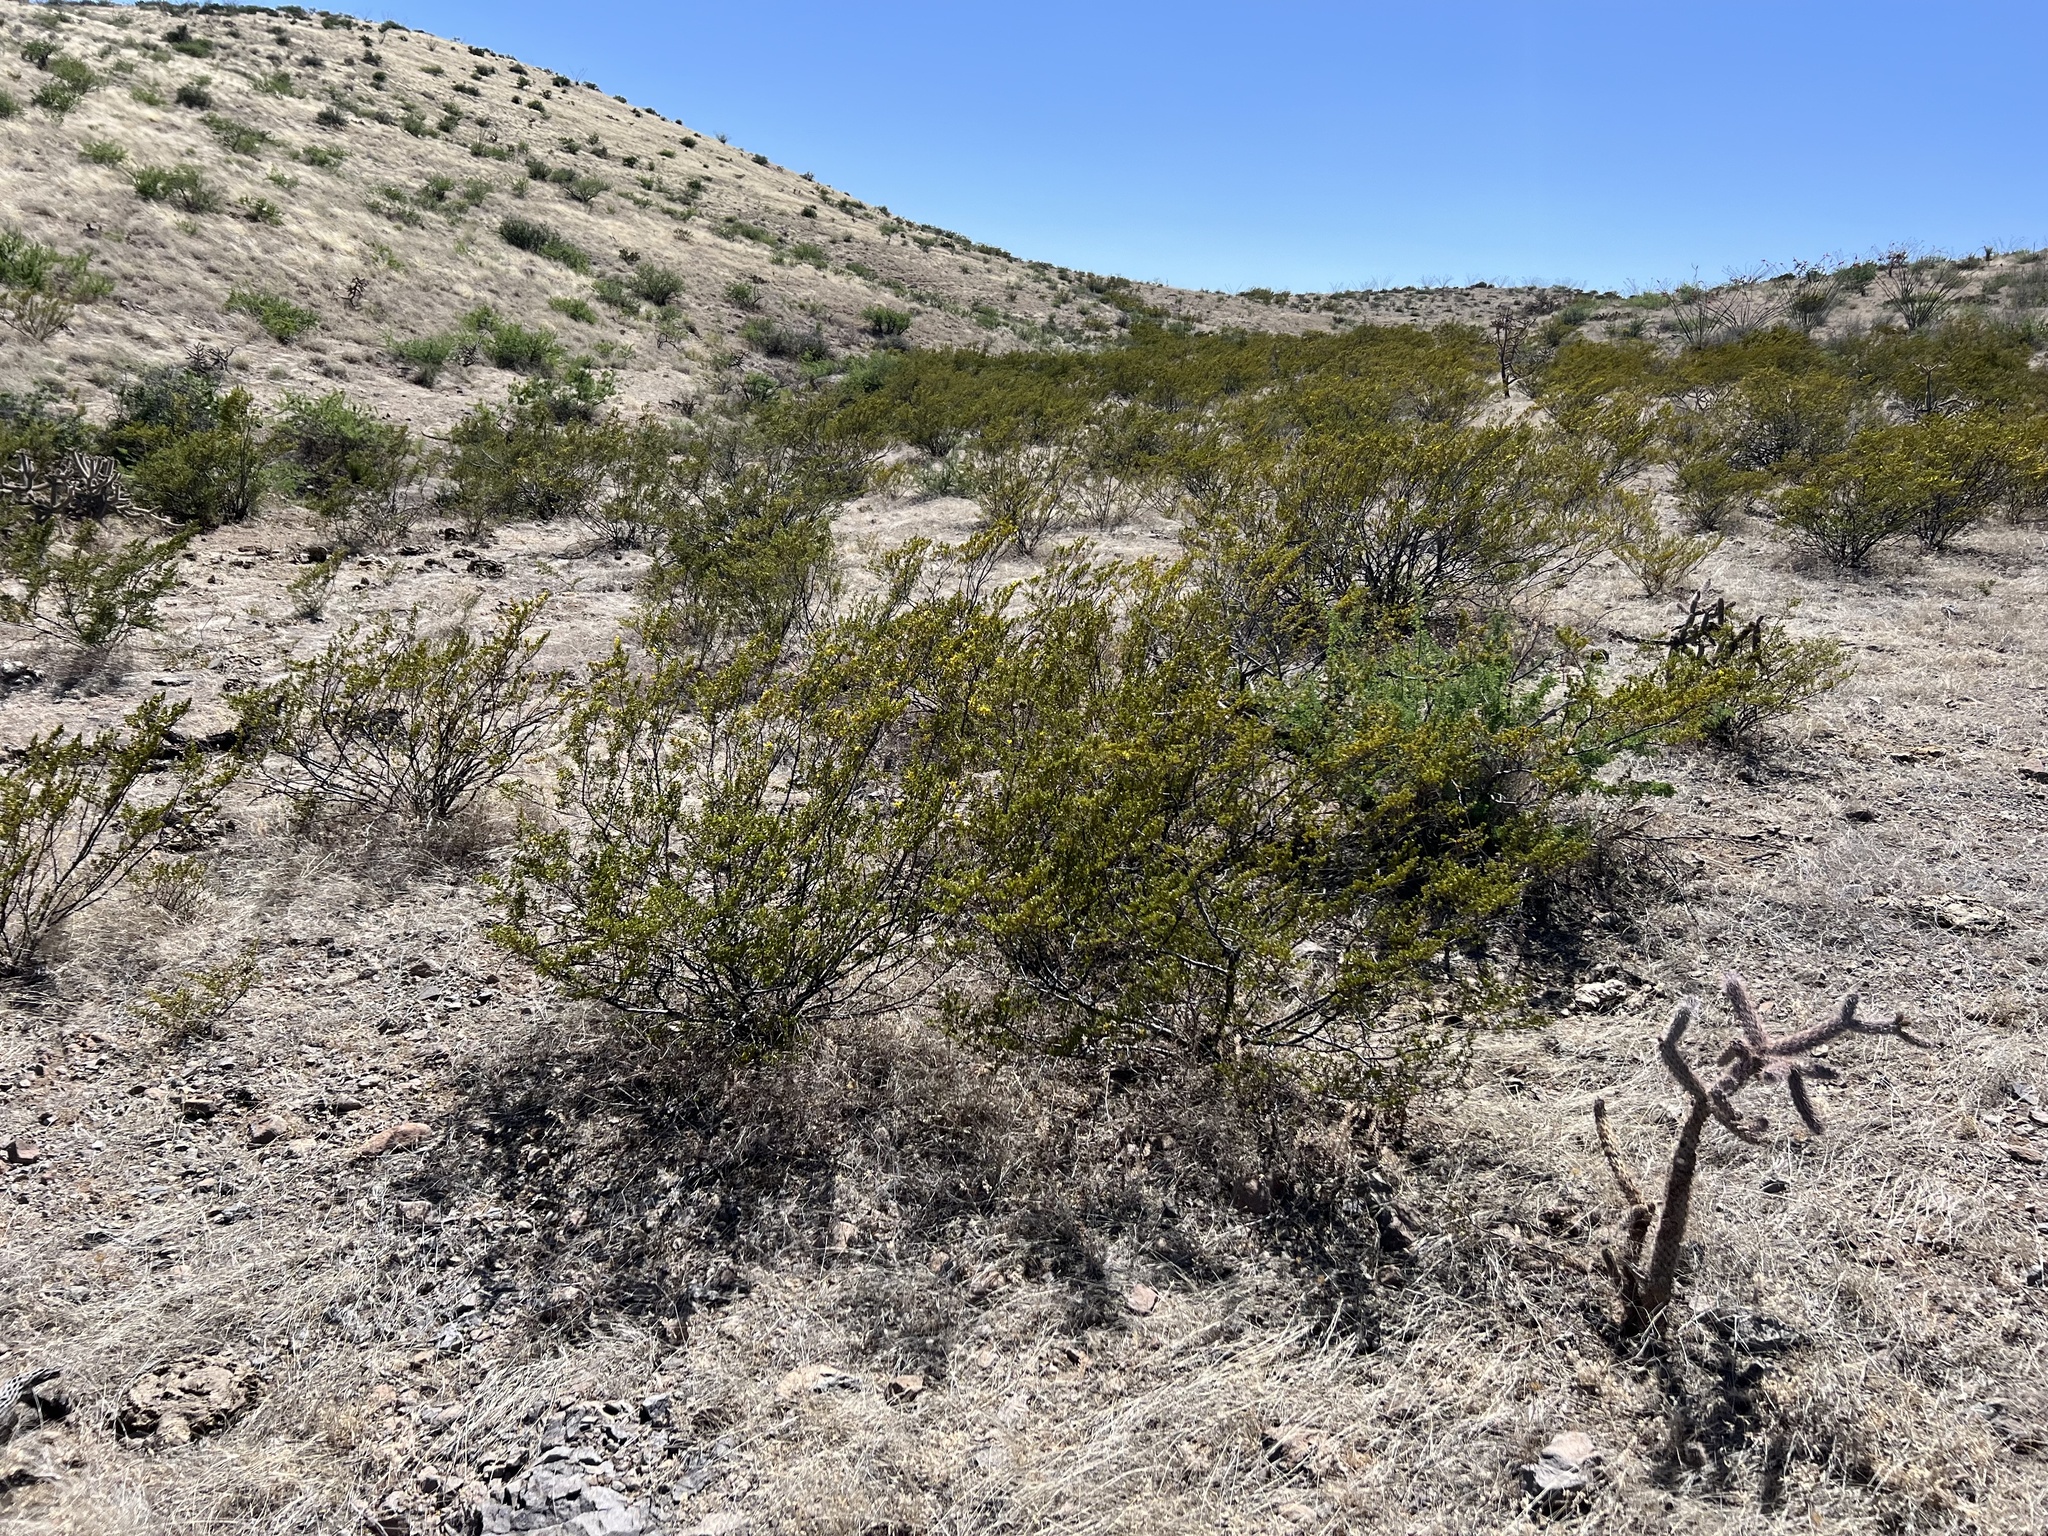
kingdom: Plantae
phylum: Tracheophyta
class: Magnoliopsida
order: Zygophyllales
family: Zygophyllaceae
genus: Larrea
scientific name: Larrea tridentata
